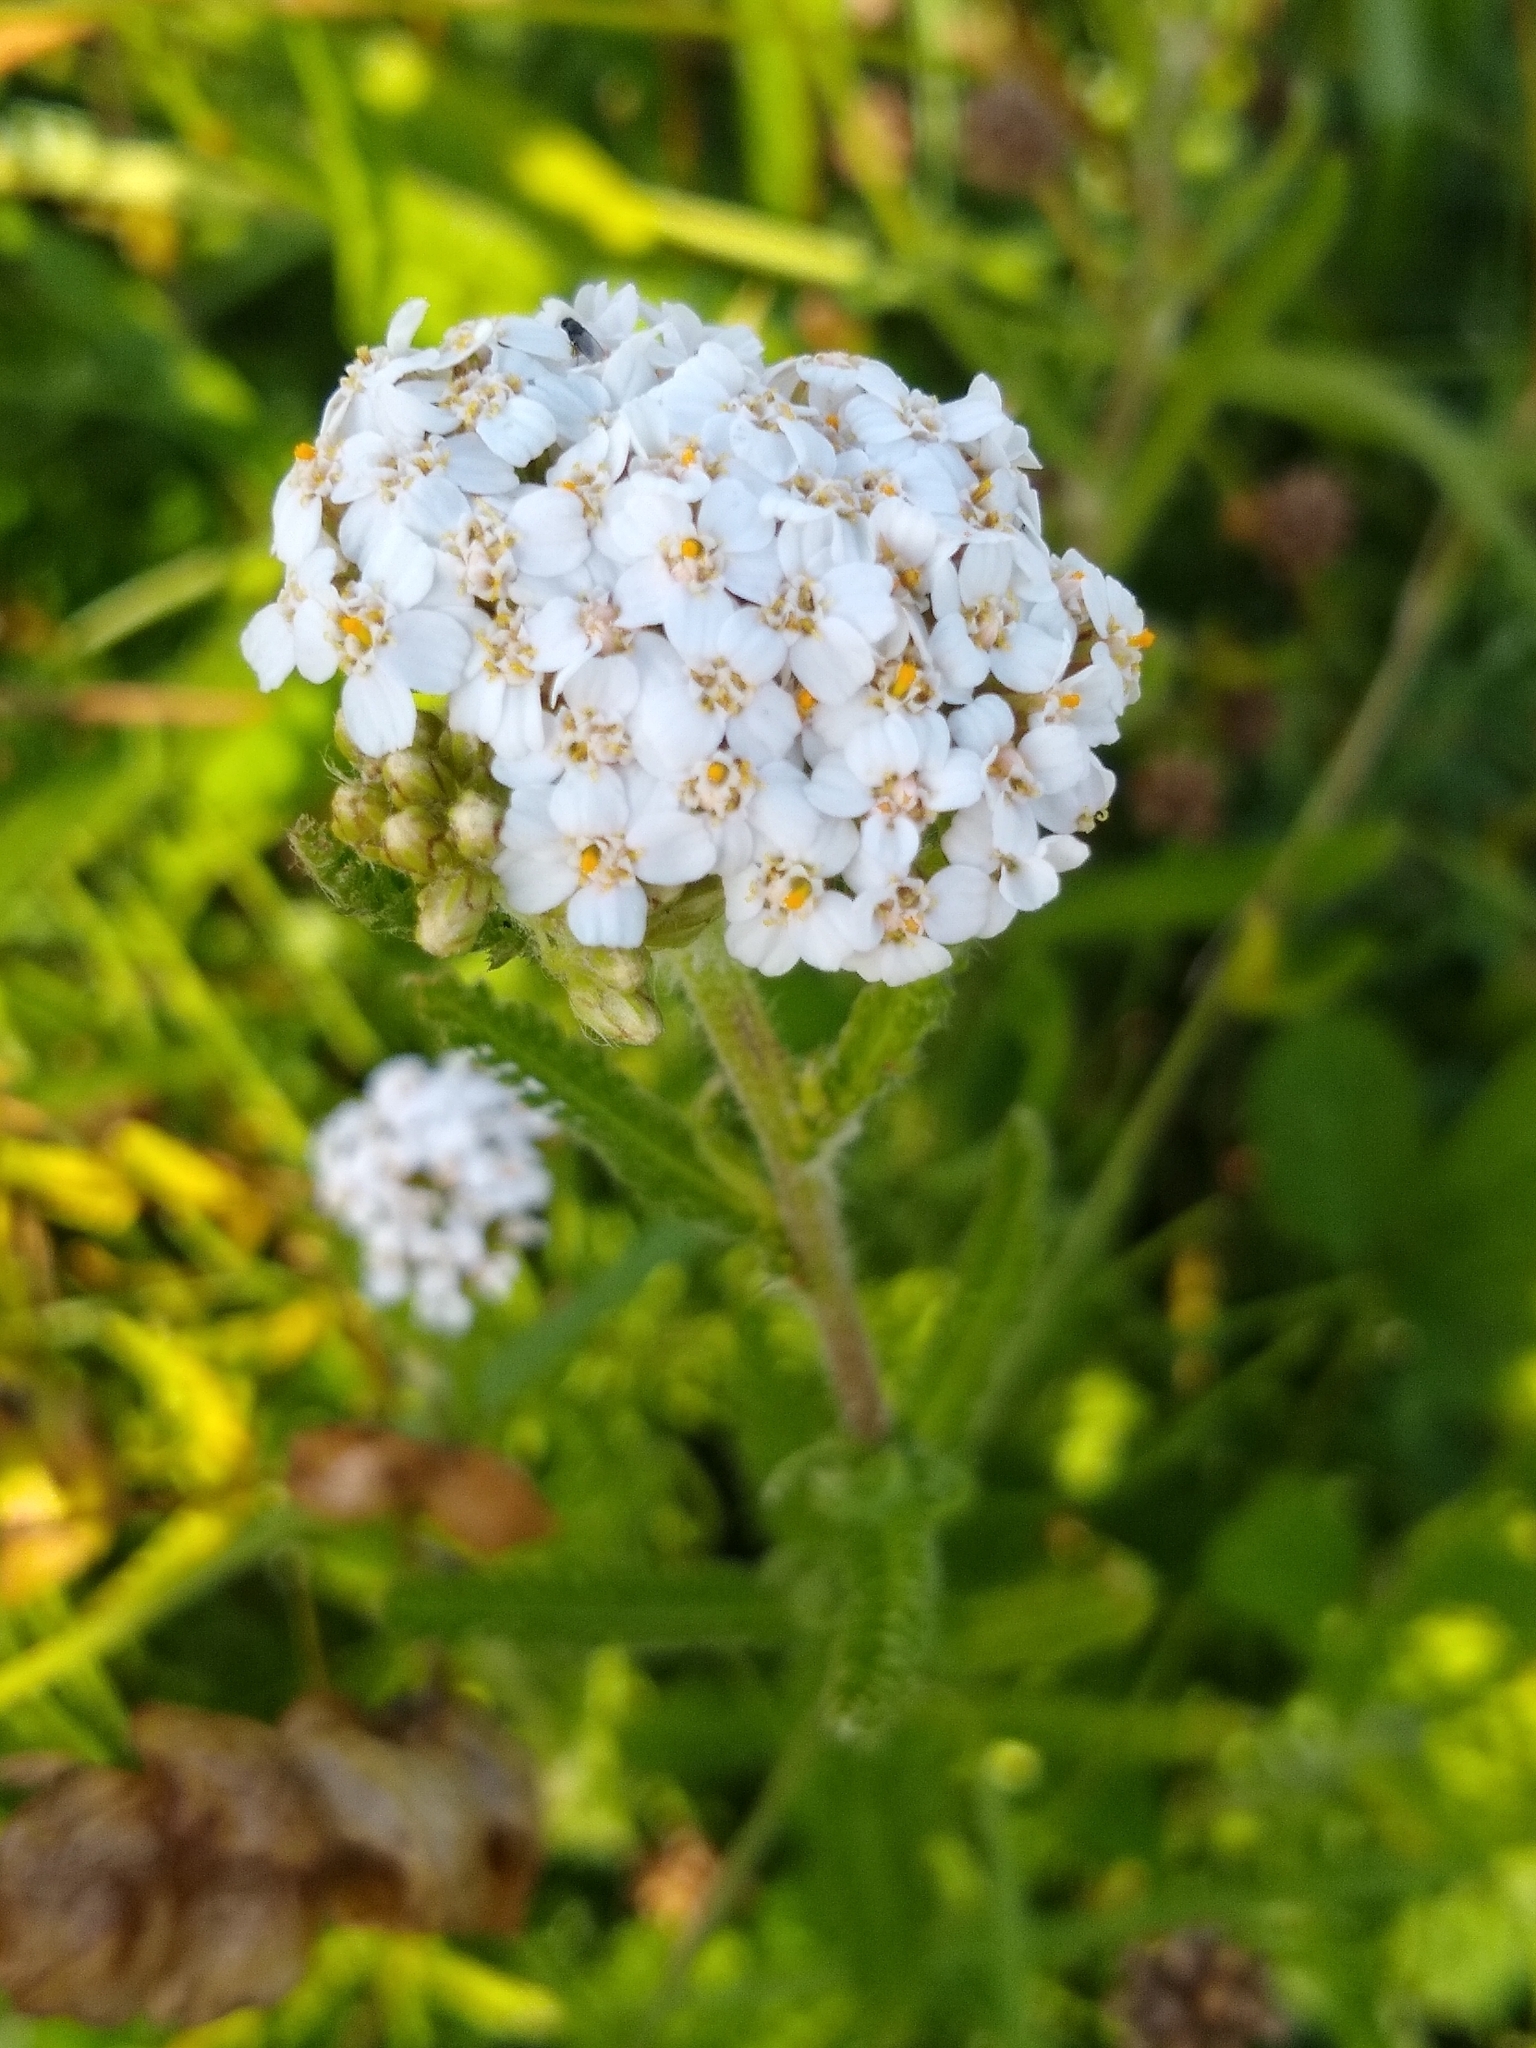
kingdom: Plantae
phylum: Tracheophyta
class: Magnoliopsida
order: Asterales
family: Asteraceae
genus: Achillea
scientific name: Achillea millefolium
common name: Yarrow
